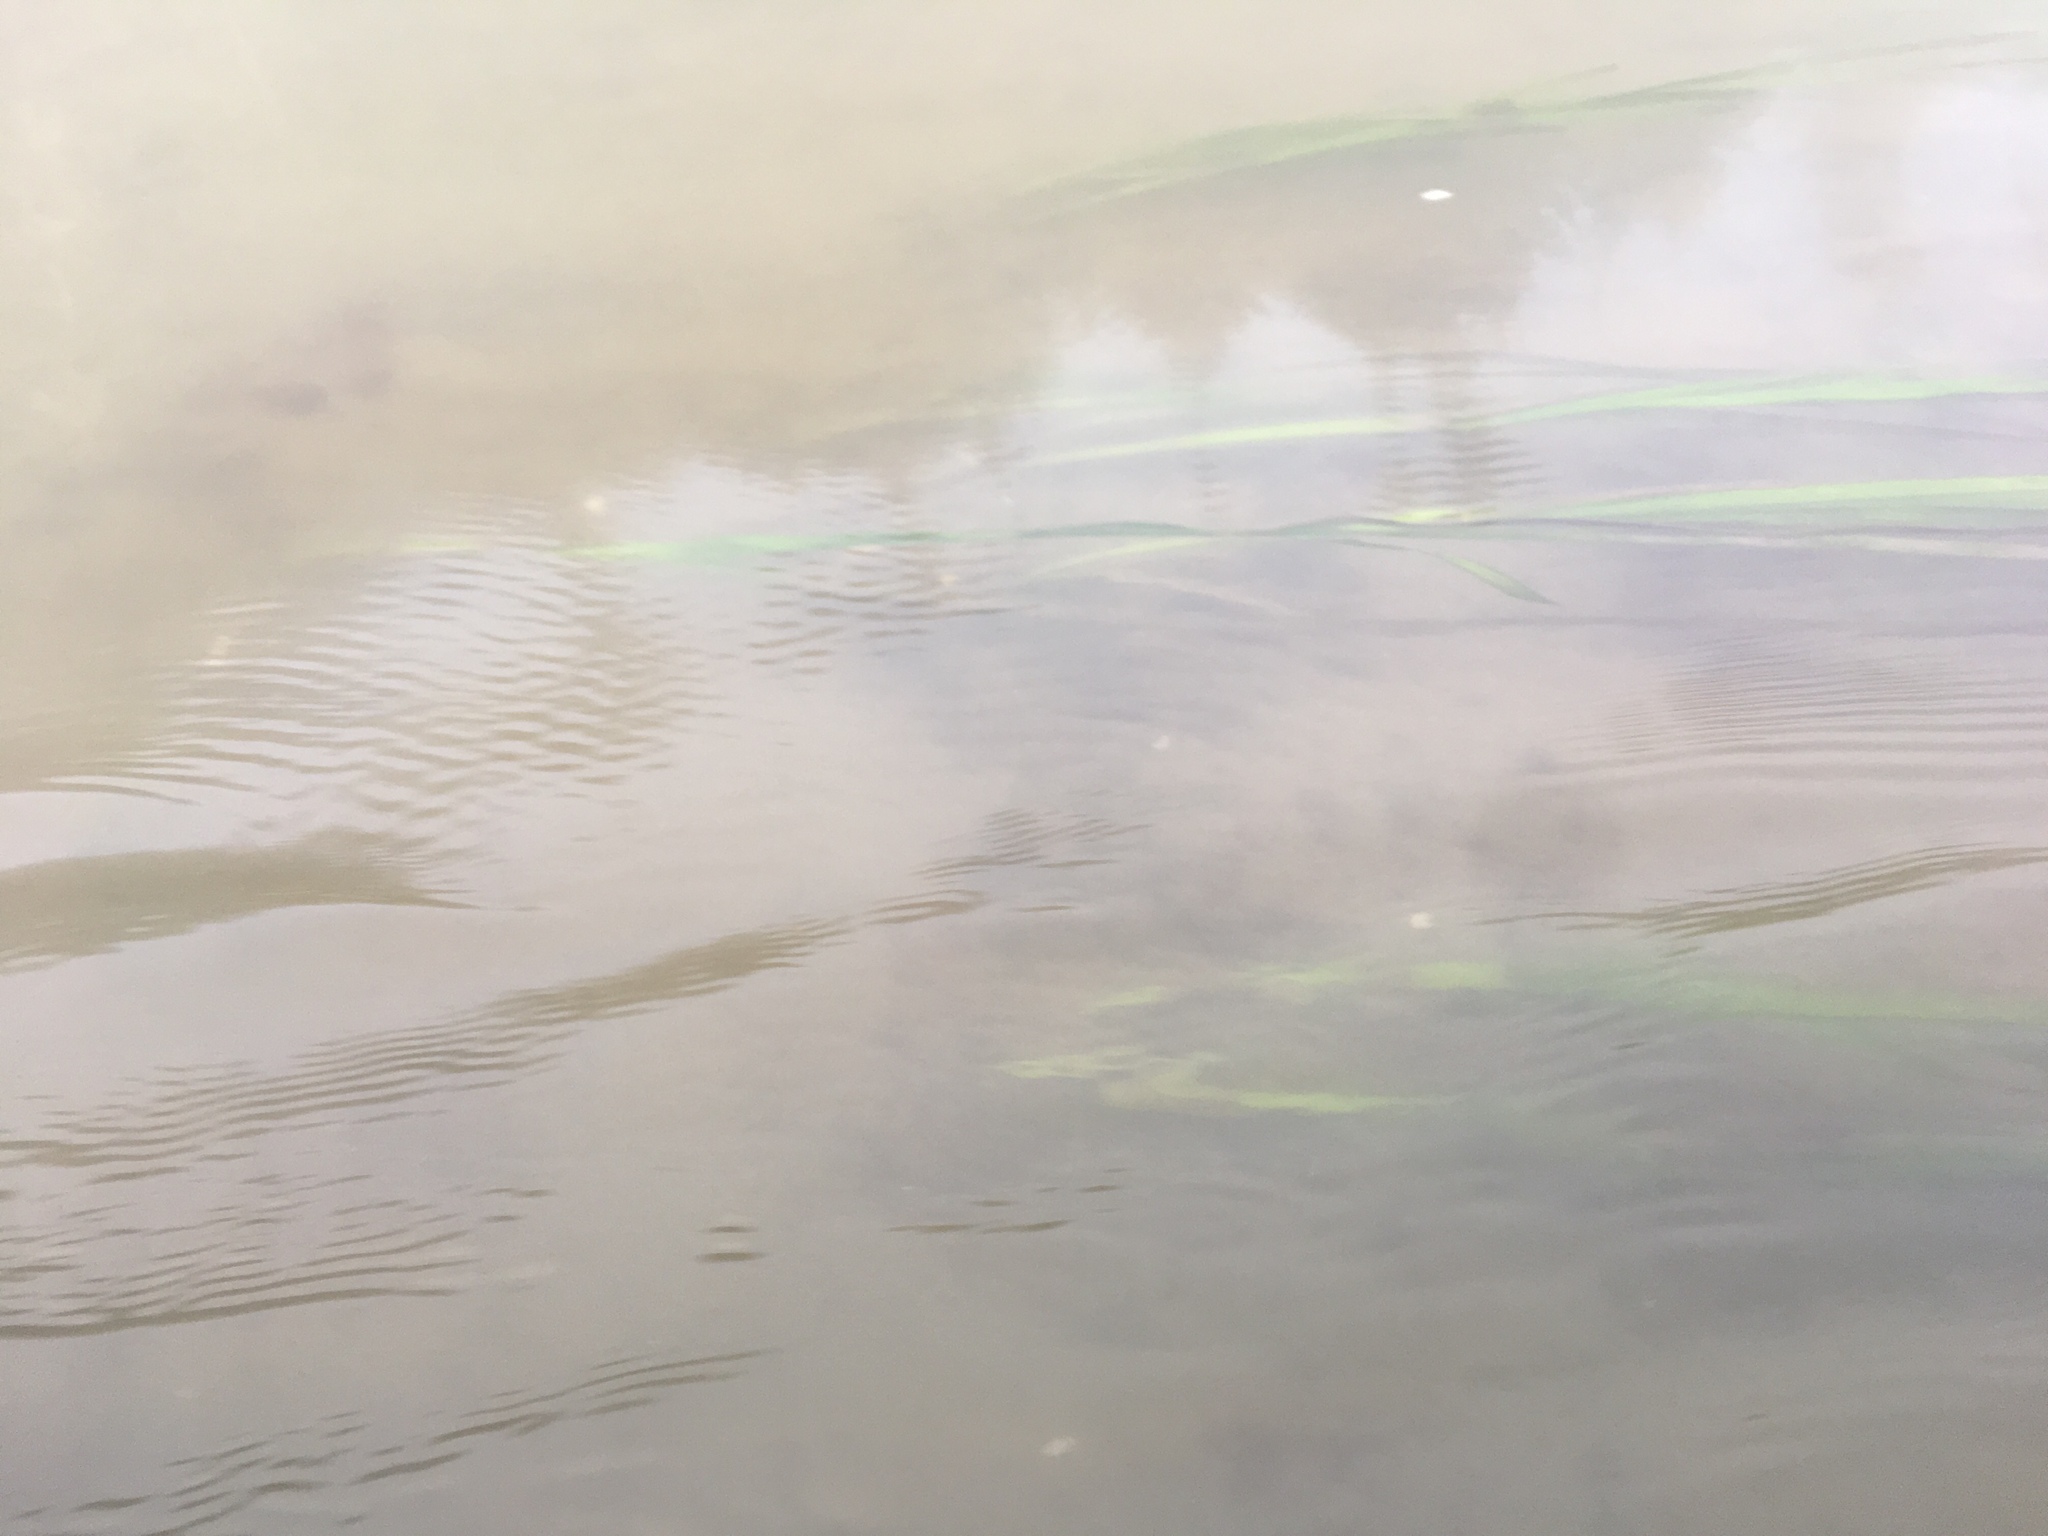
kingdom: Plantae
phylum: Tracheophyta
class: Liliopsida
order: Alismatales
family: Zosteraceae
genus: Zostera
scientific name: Zostera marina
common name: Eelgrass
